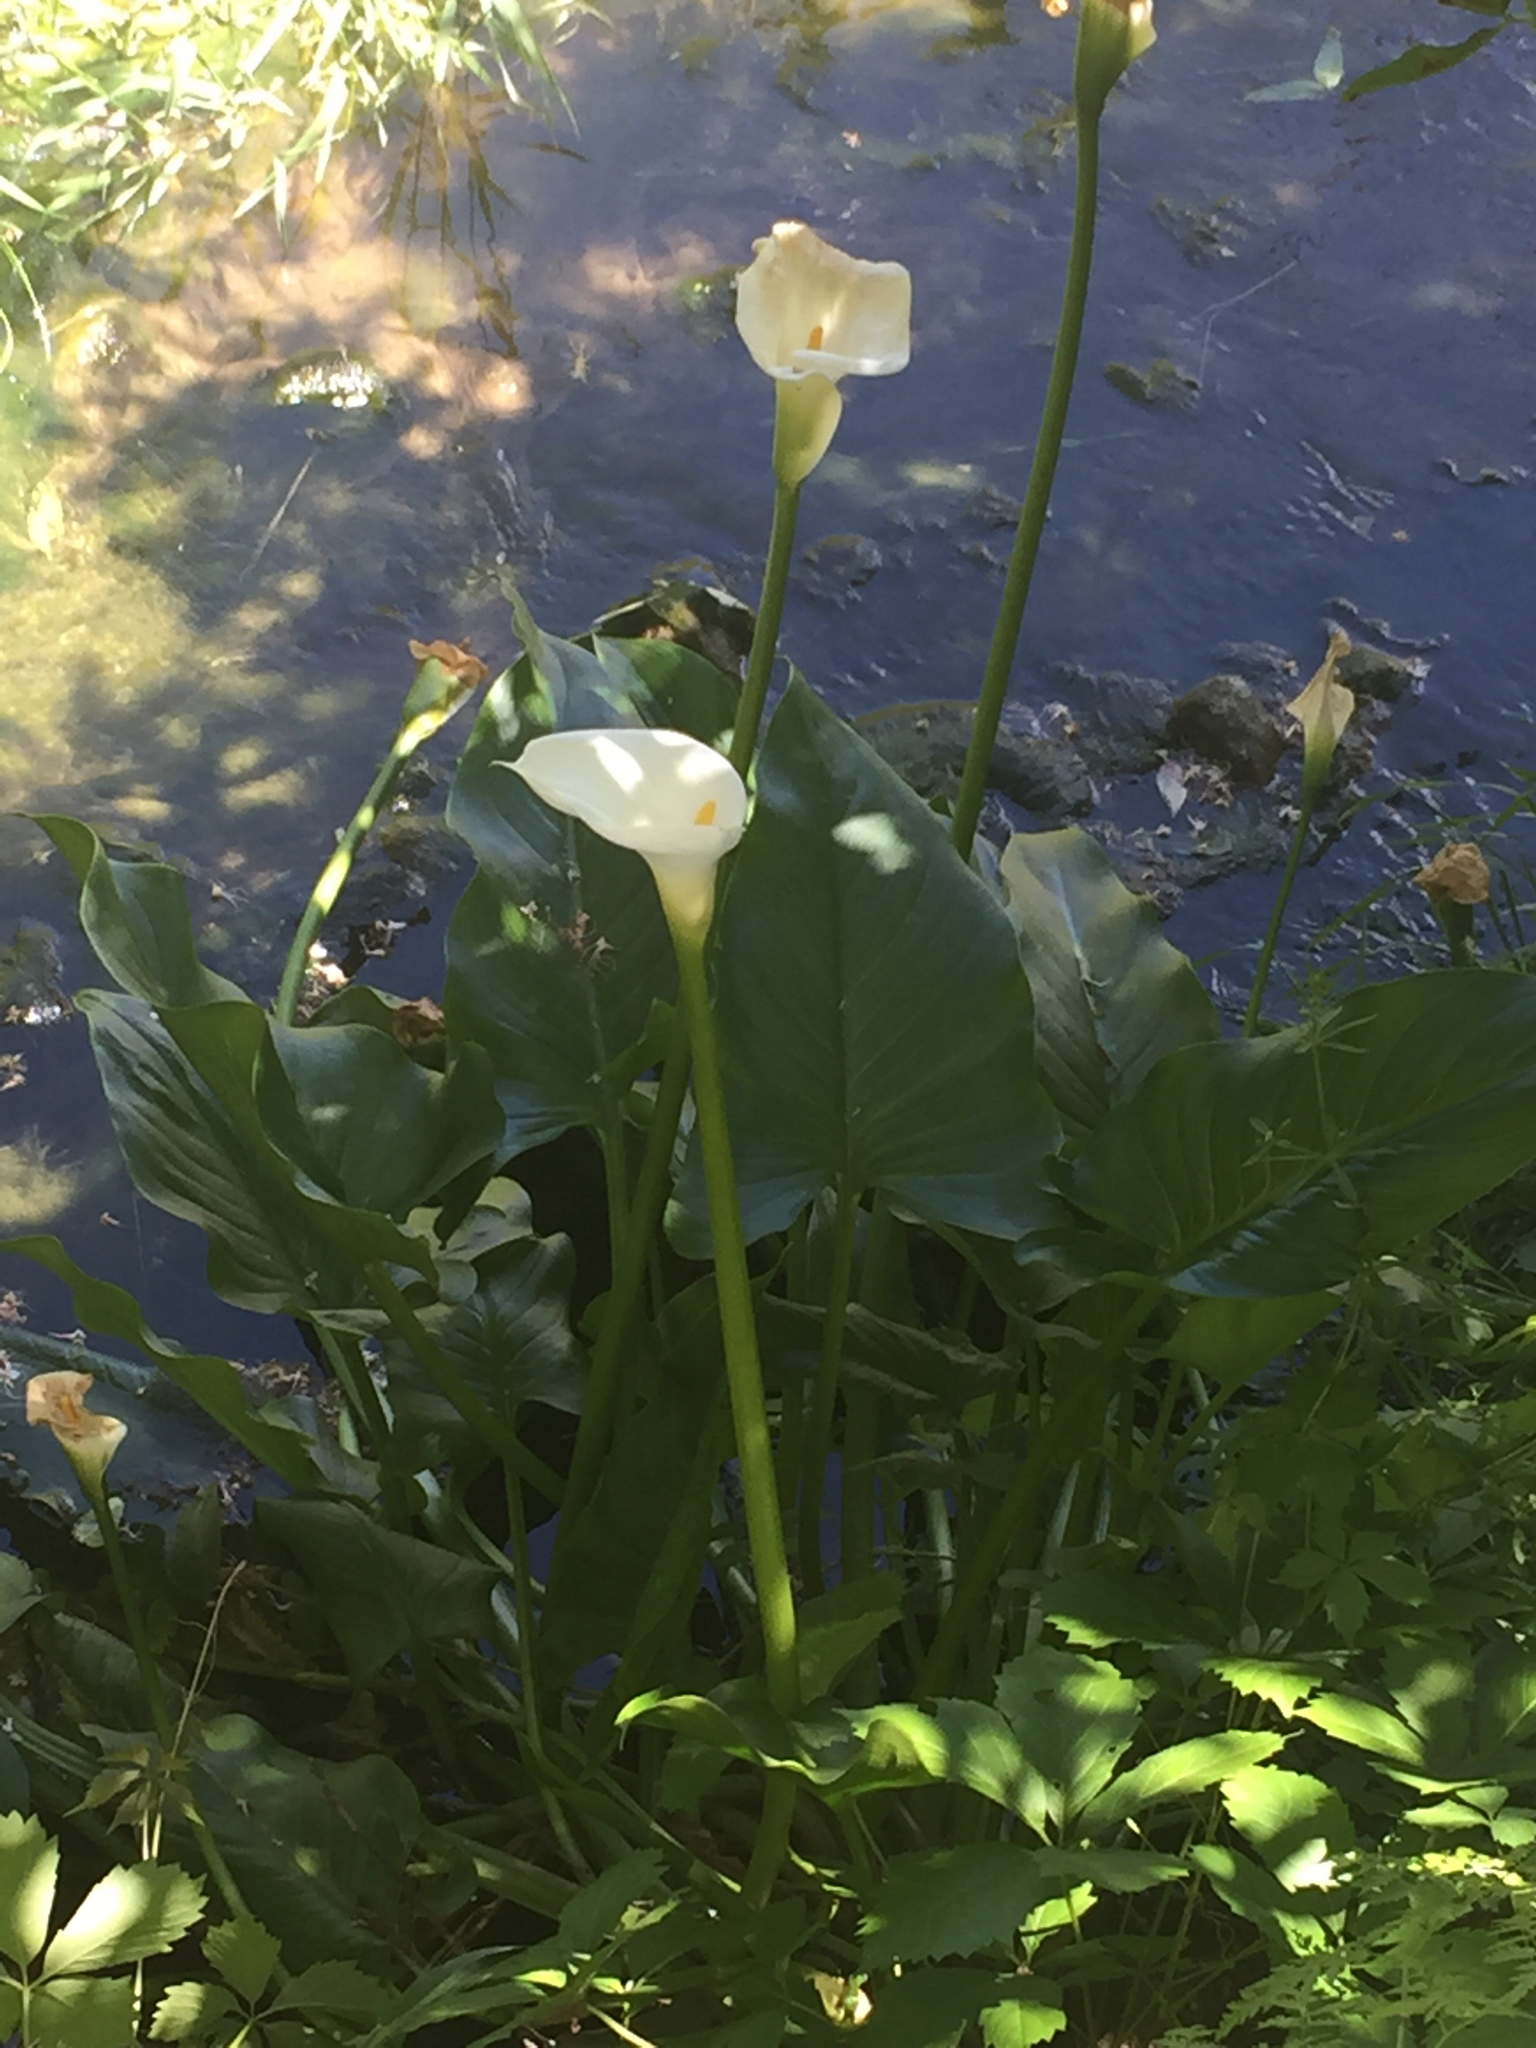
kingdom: Plantae
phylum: Tracheophyta
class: Liliopsida
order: Alismatales
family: Araceae
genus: Zantedeschia
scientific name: Zantedeschia aethiopica
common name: Altar-lily
